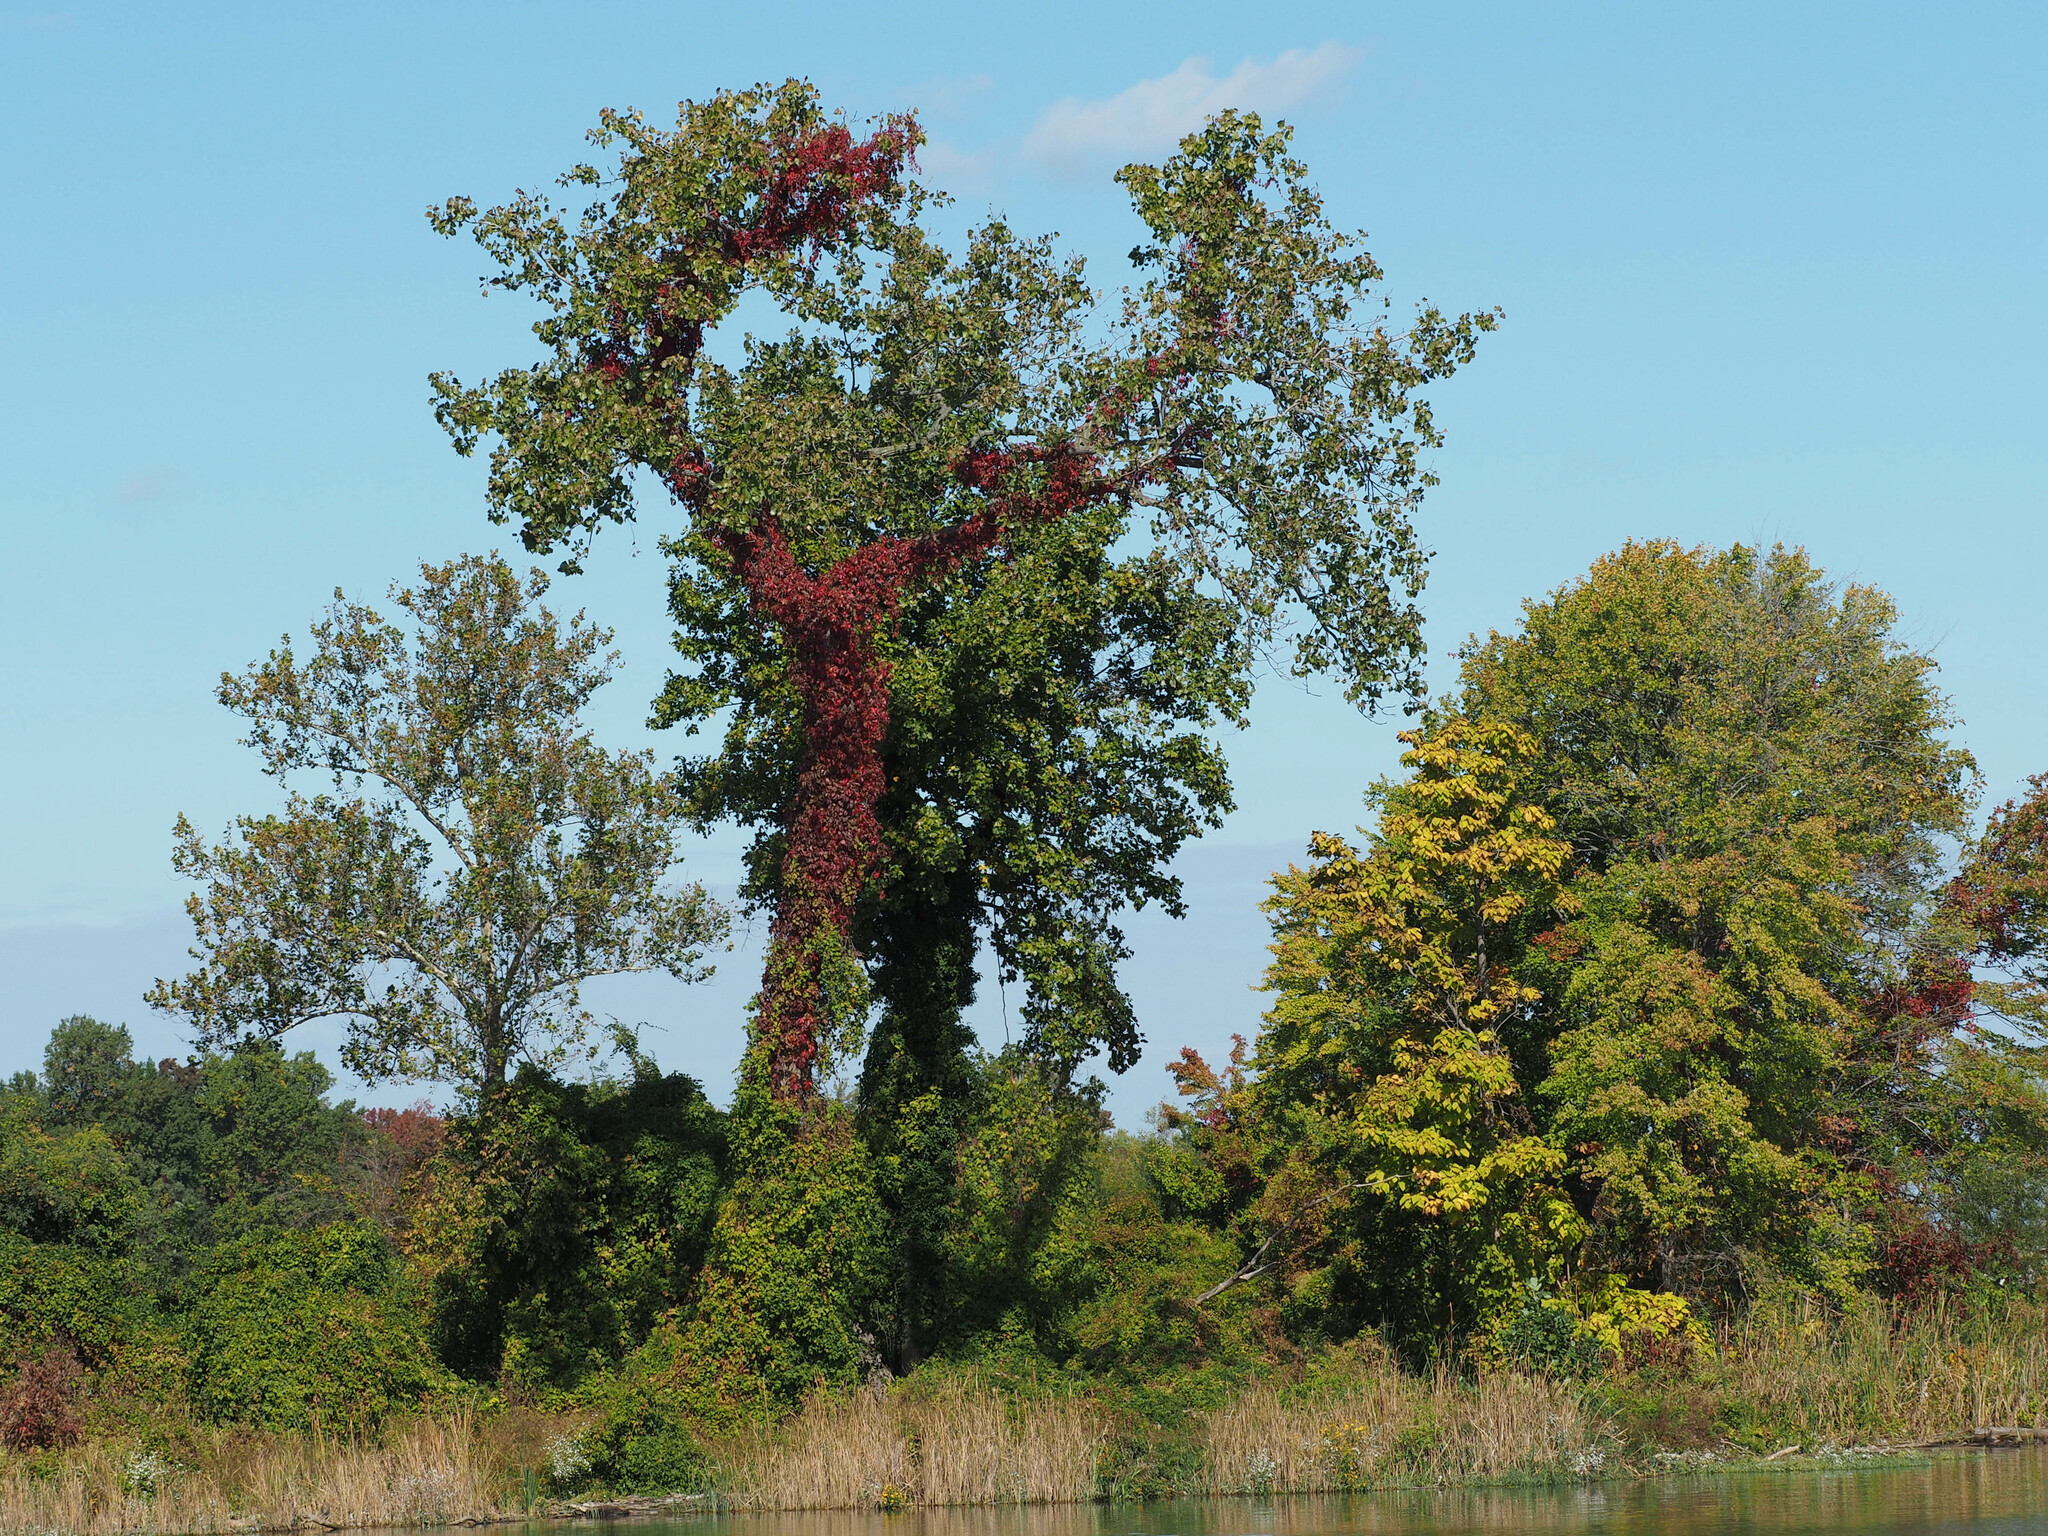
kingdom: Plantae
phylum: Tracheophyta
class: Magnoliopsida
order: Vitales
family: Vitaceae
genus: Parthenocissus
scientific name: Parthenocissus quinquefolia
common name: Virginia-creeper
